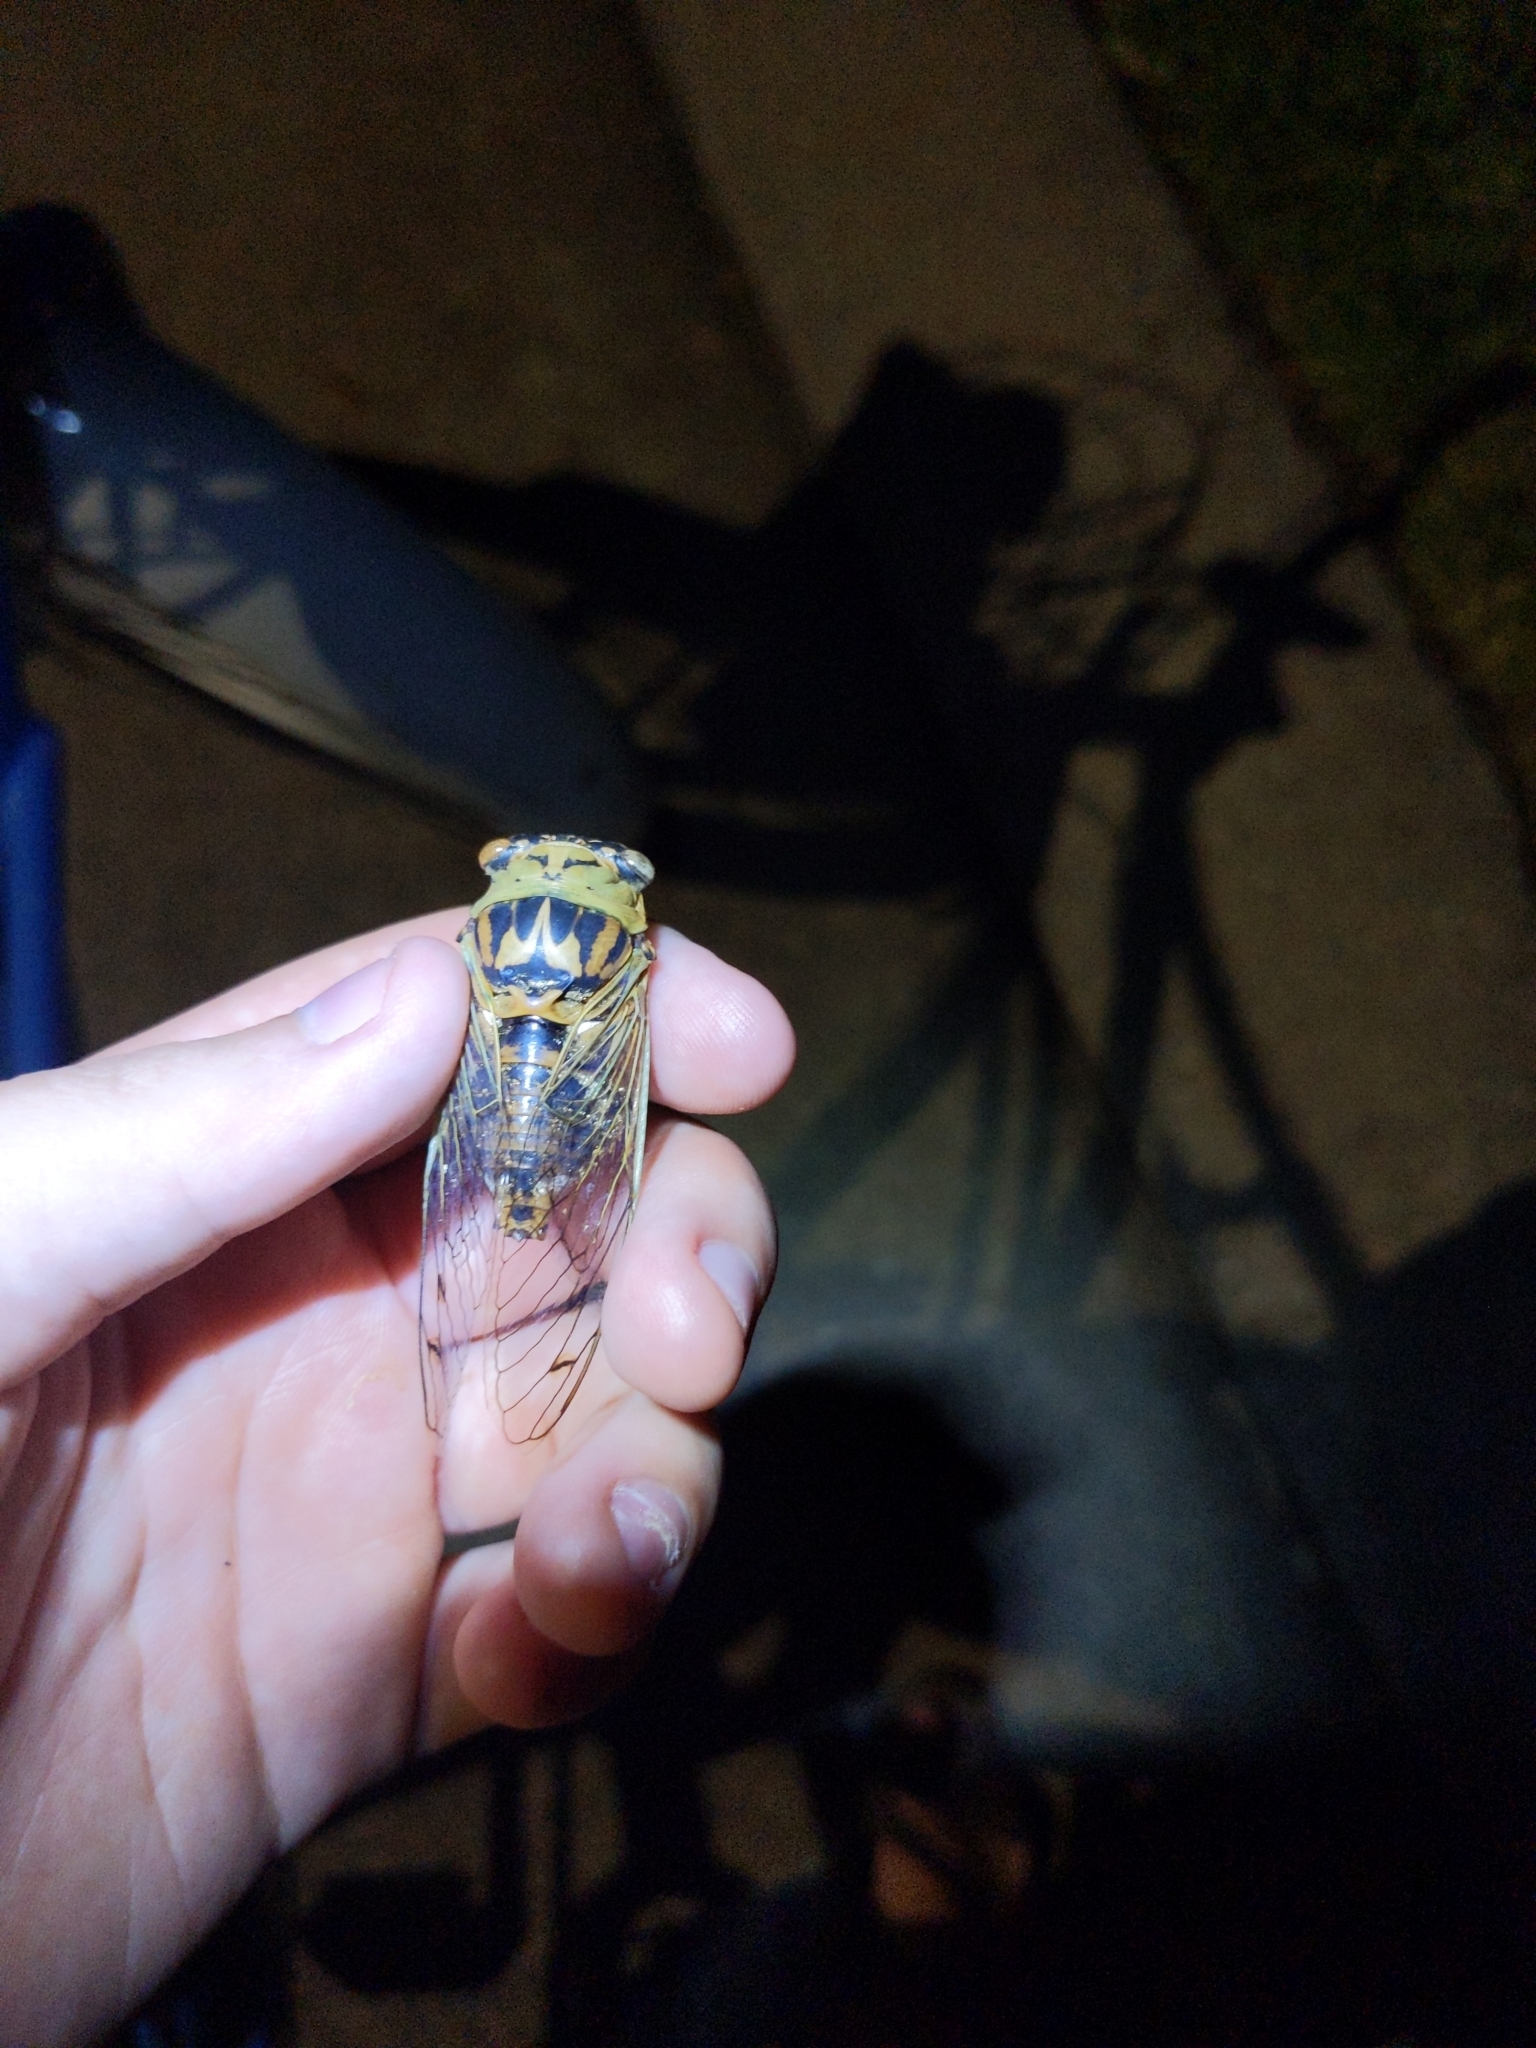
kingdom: Animalia
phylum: Arthropoda
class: Insecta
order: Hemiptera
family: Cicadidae
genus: Megatibicen
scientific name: Megatibicen resh
